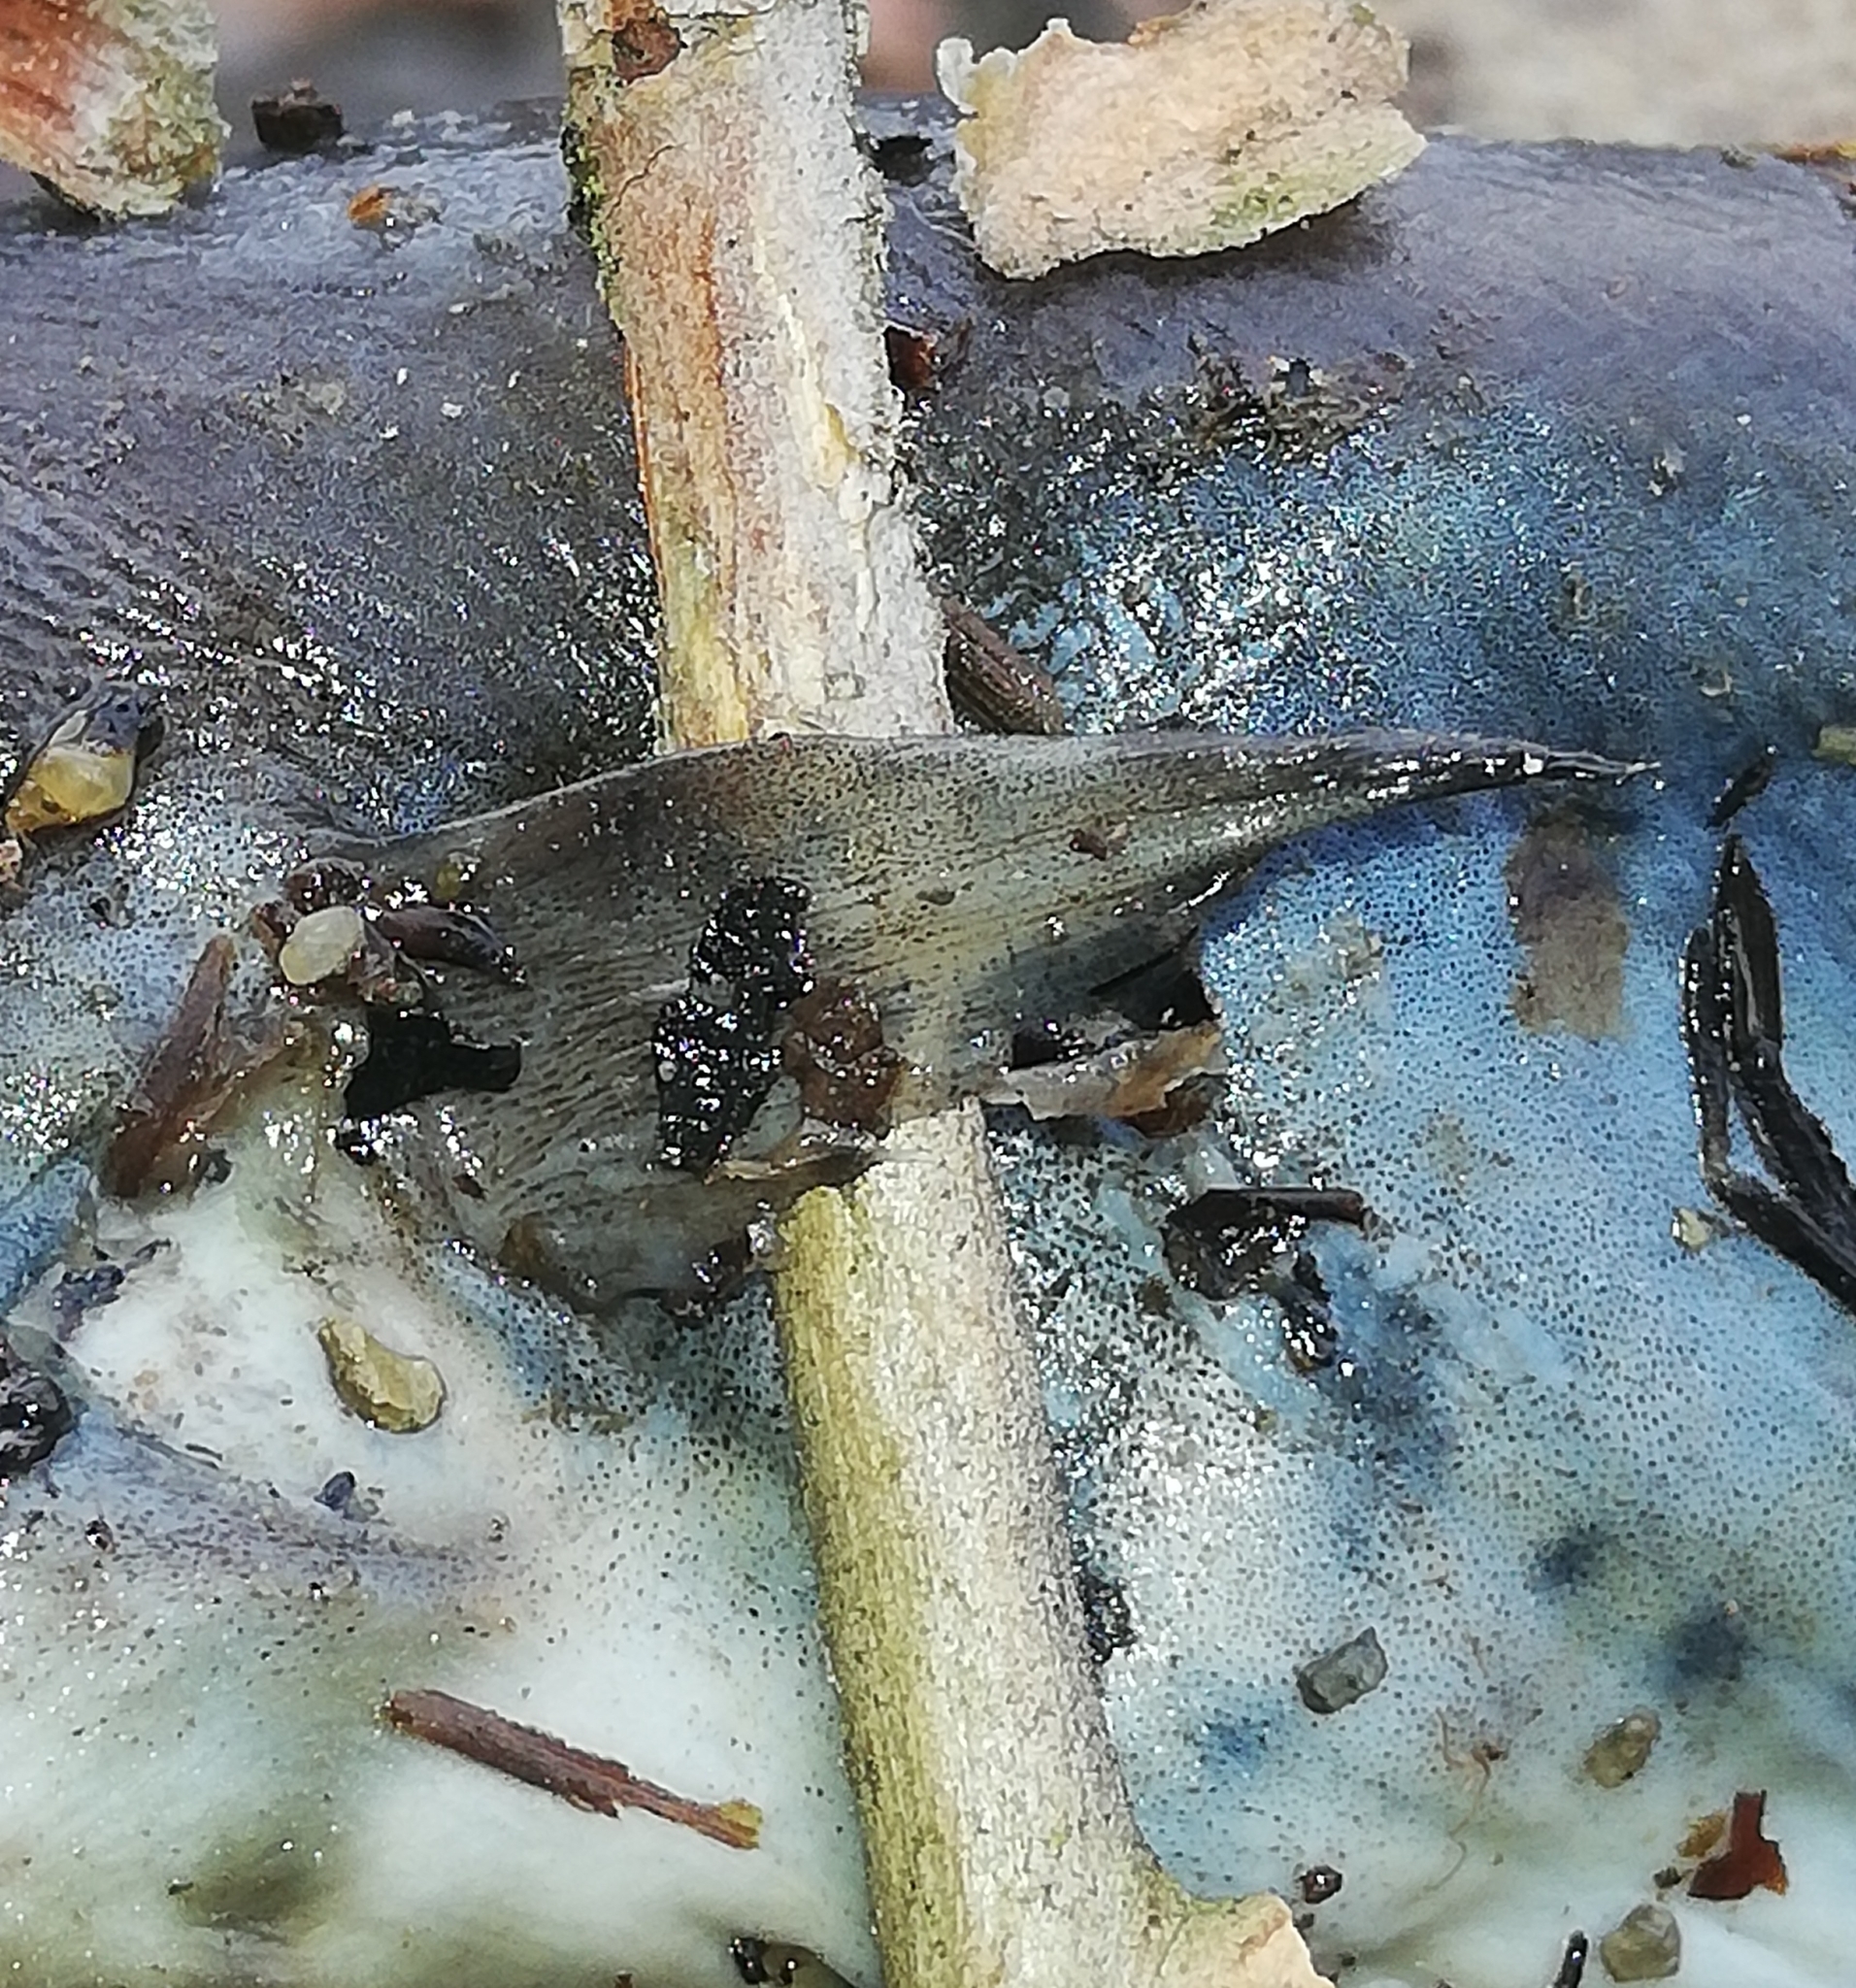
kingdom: Animalia
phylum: Chordata
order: Anguilliformes
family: Anguillidae
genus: Anguilla
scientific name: Anguilla anguilla
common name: European eel
